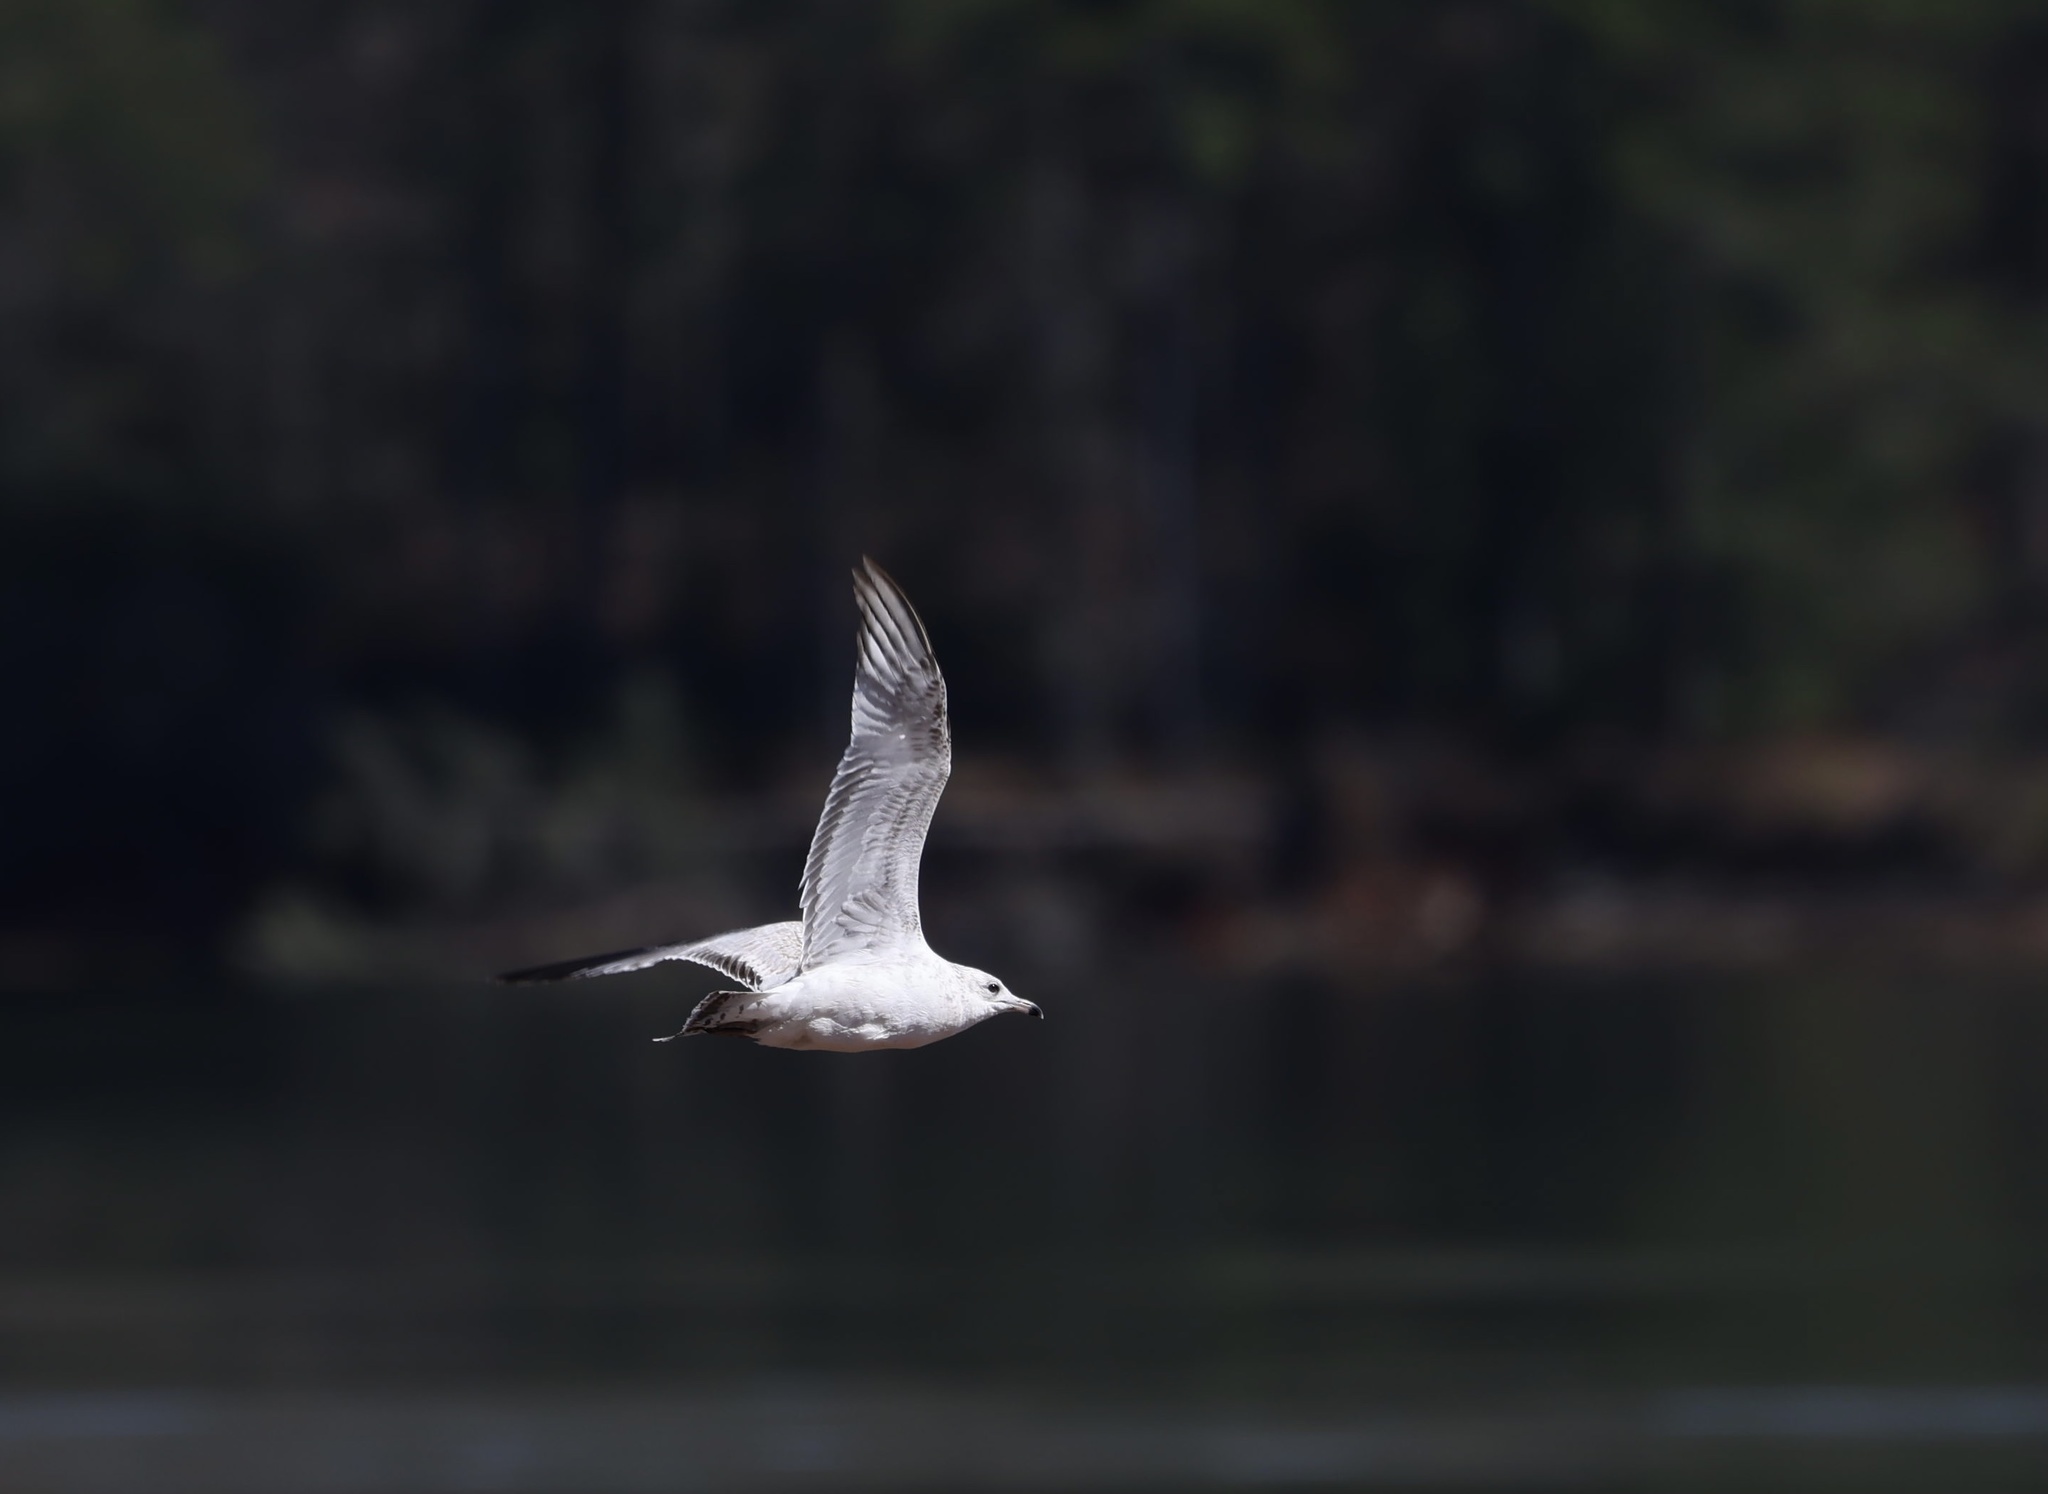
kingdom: Animalia
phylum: Chordata
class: Aves
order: Charadriiformes
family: Laridae
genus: Larus
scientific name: Larus delawarensis
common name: Ring-billed gull
